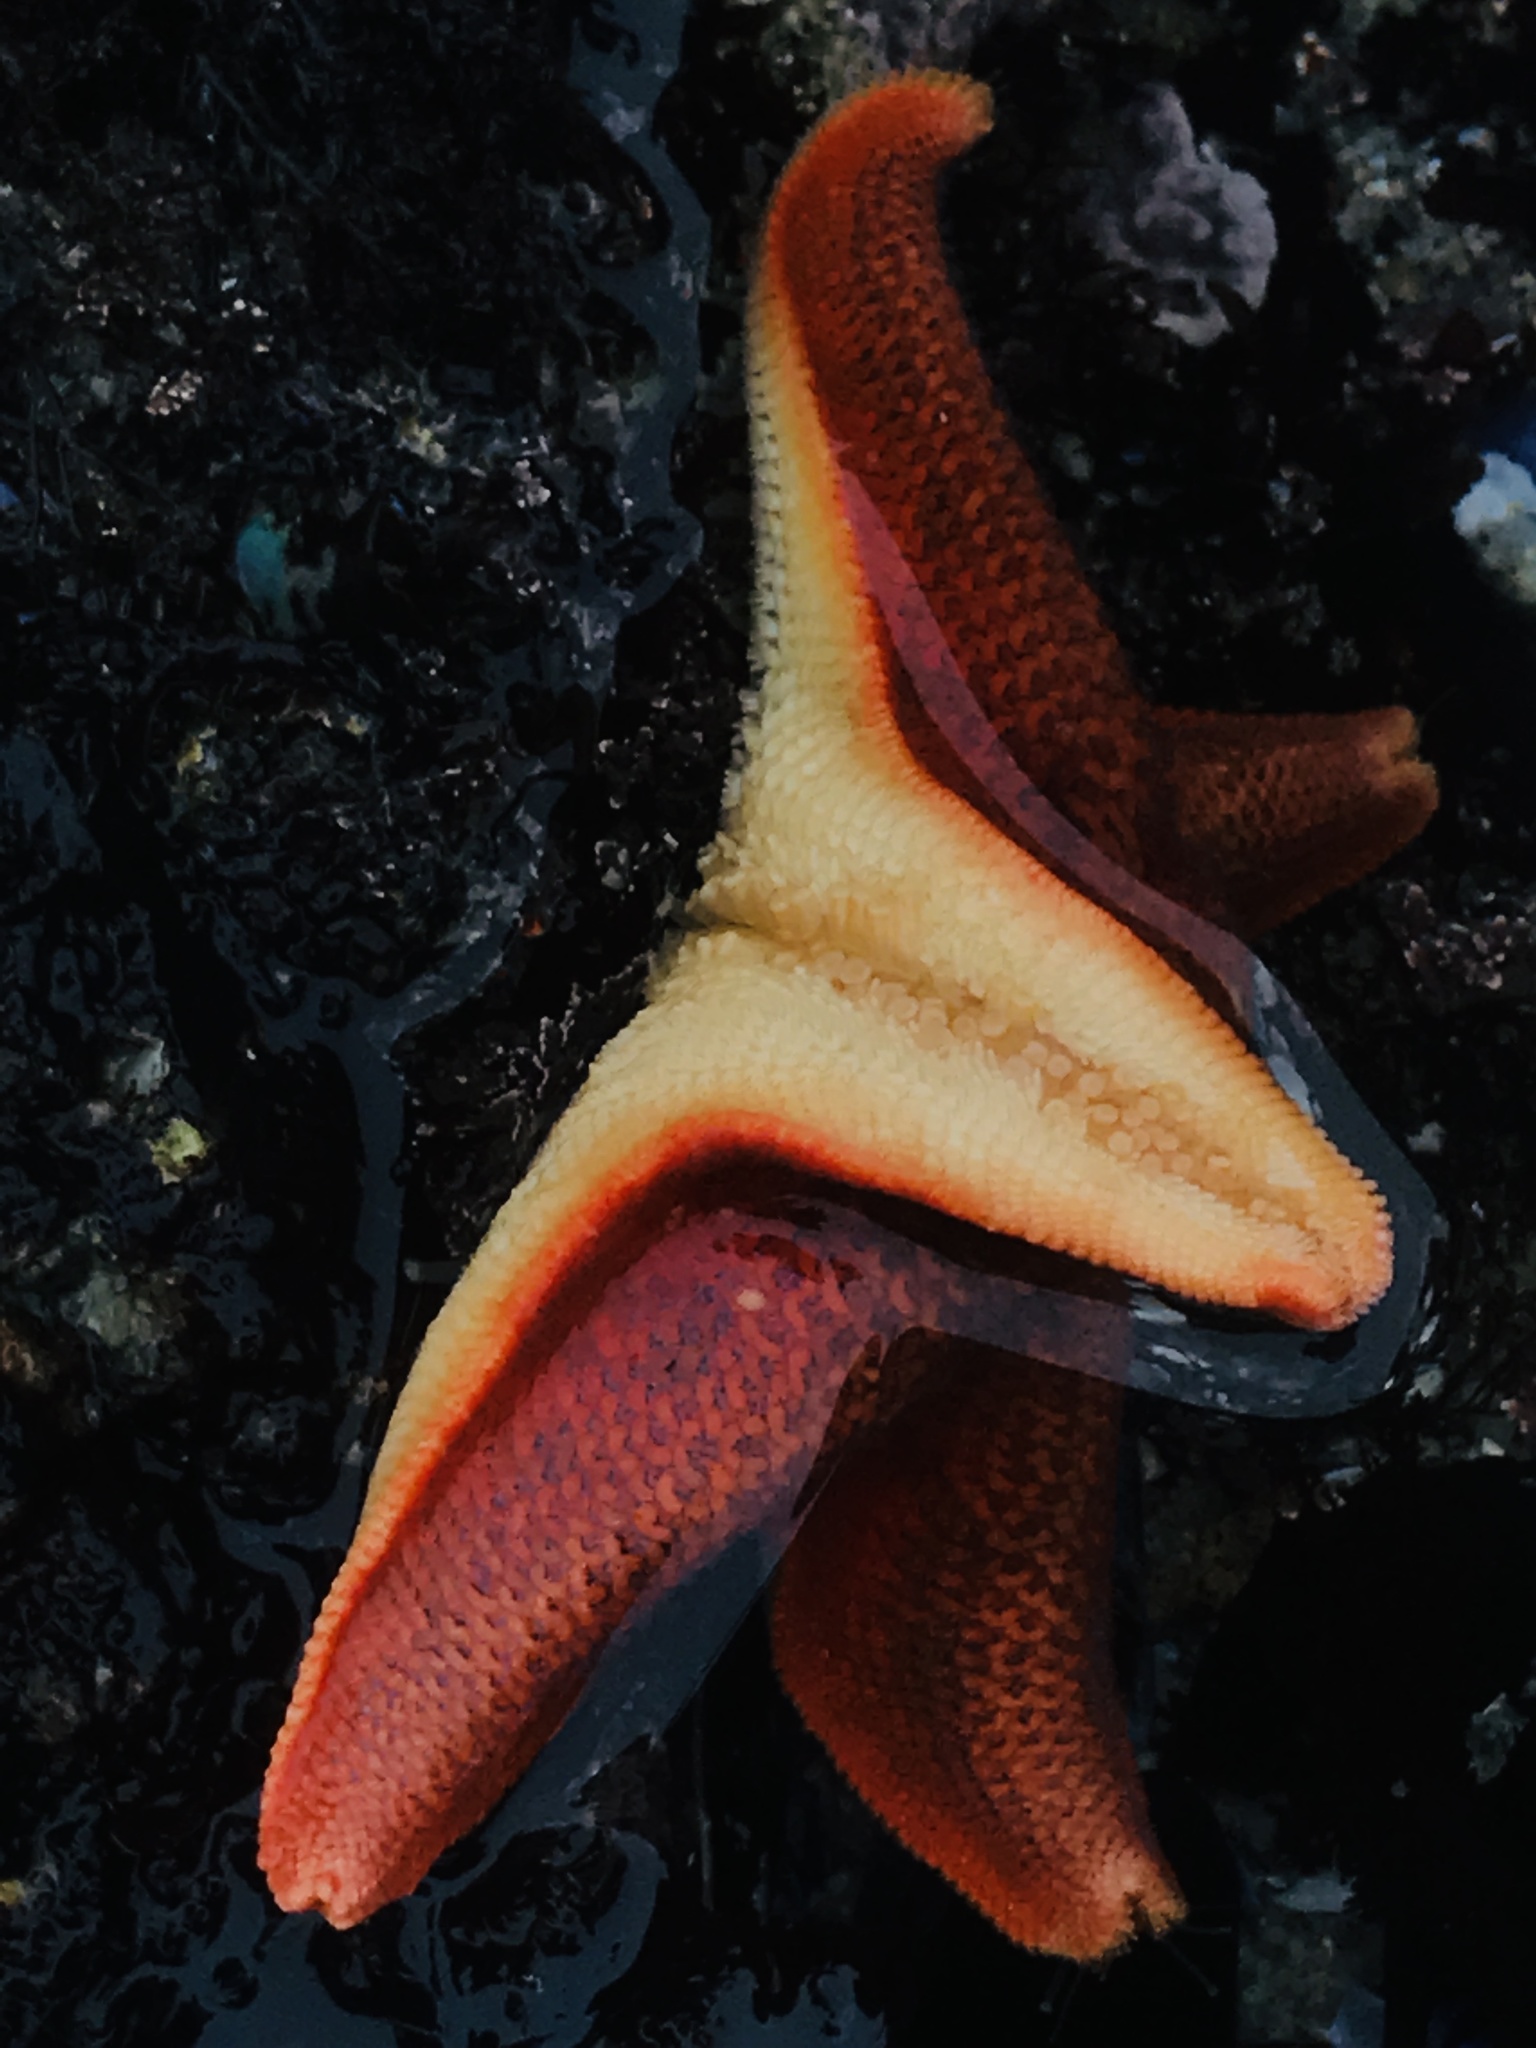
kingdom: Animalia
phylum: Echinodermata
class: Asteroidea
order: Valvatida
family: Asterinidae
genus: Patiria
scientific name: Patiria miniata
